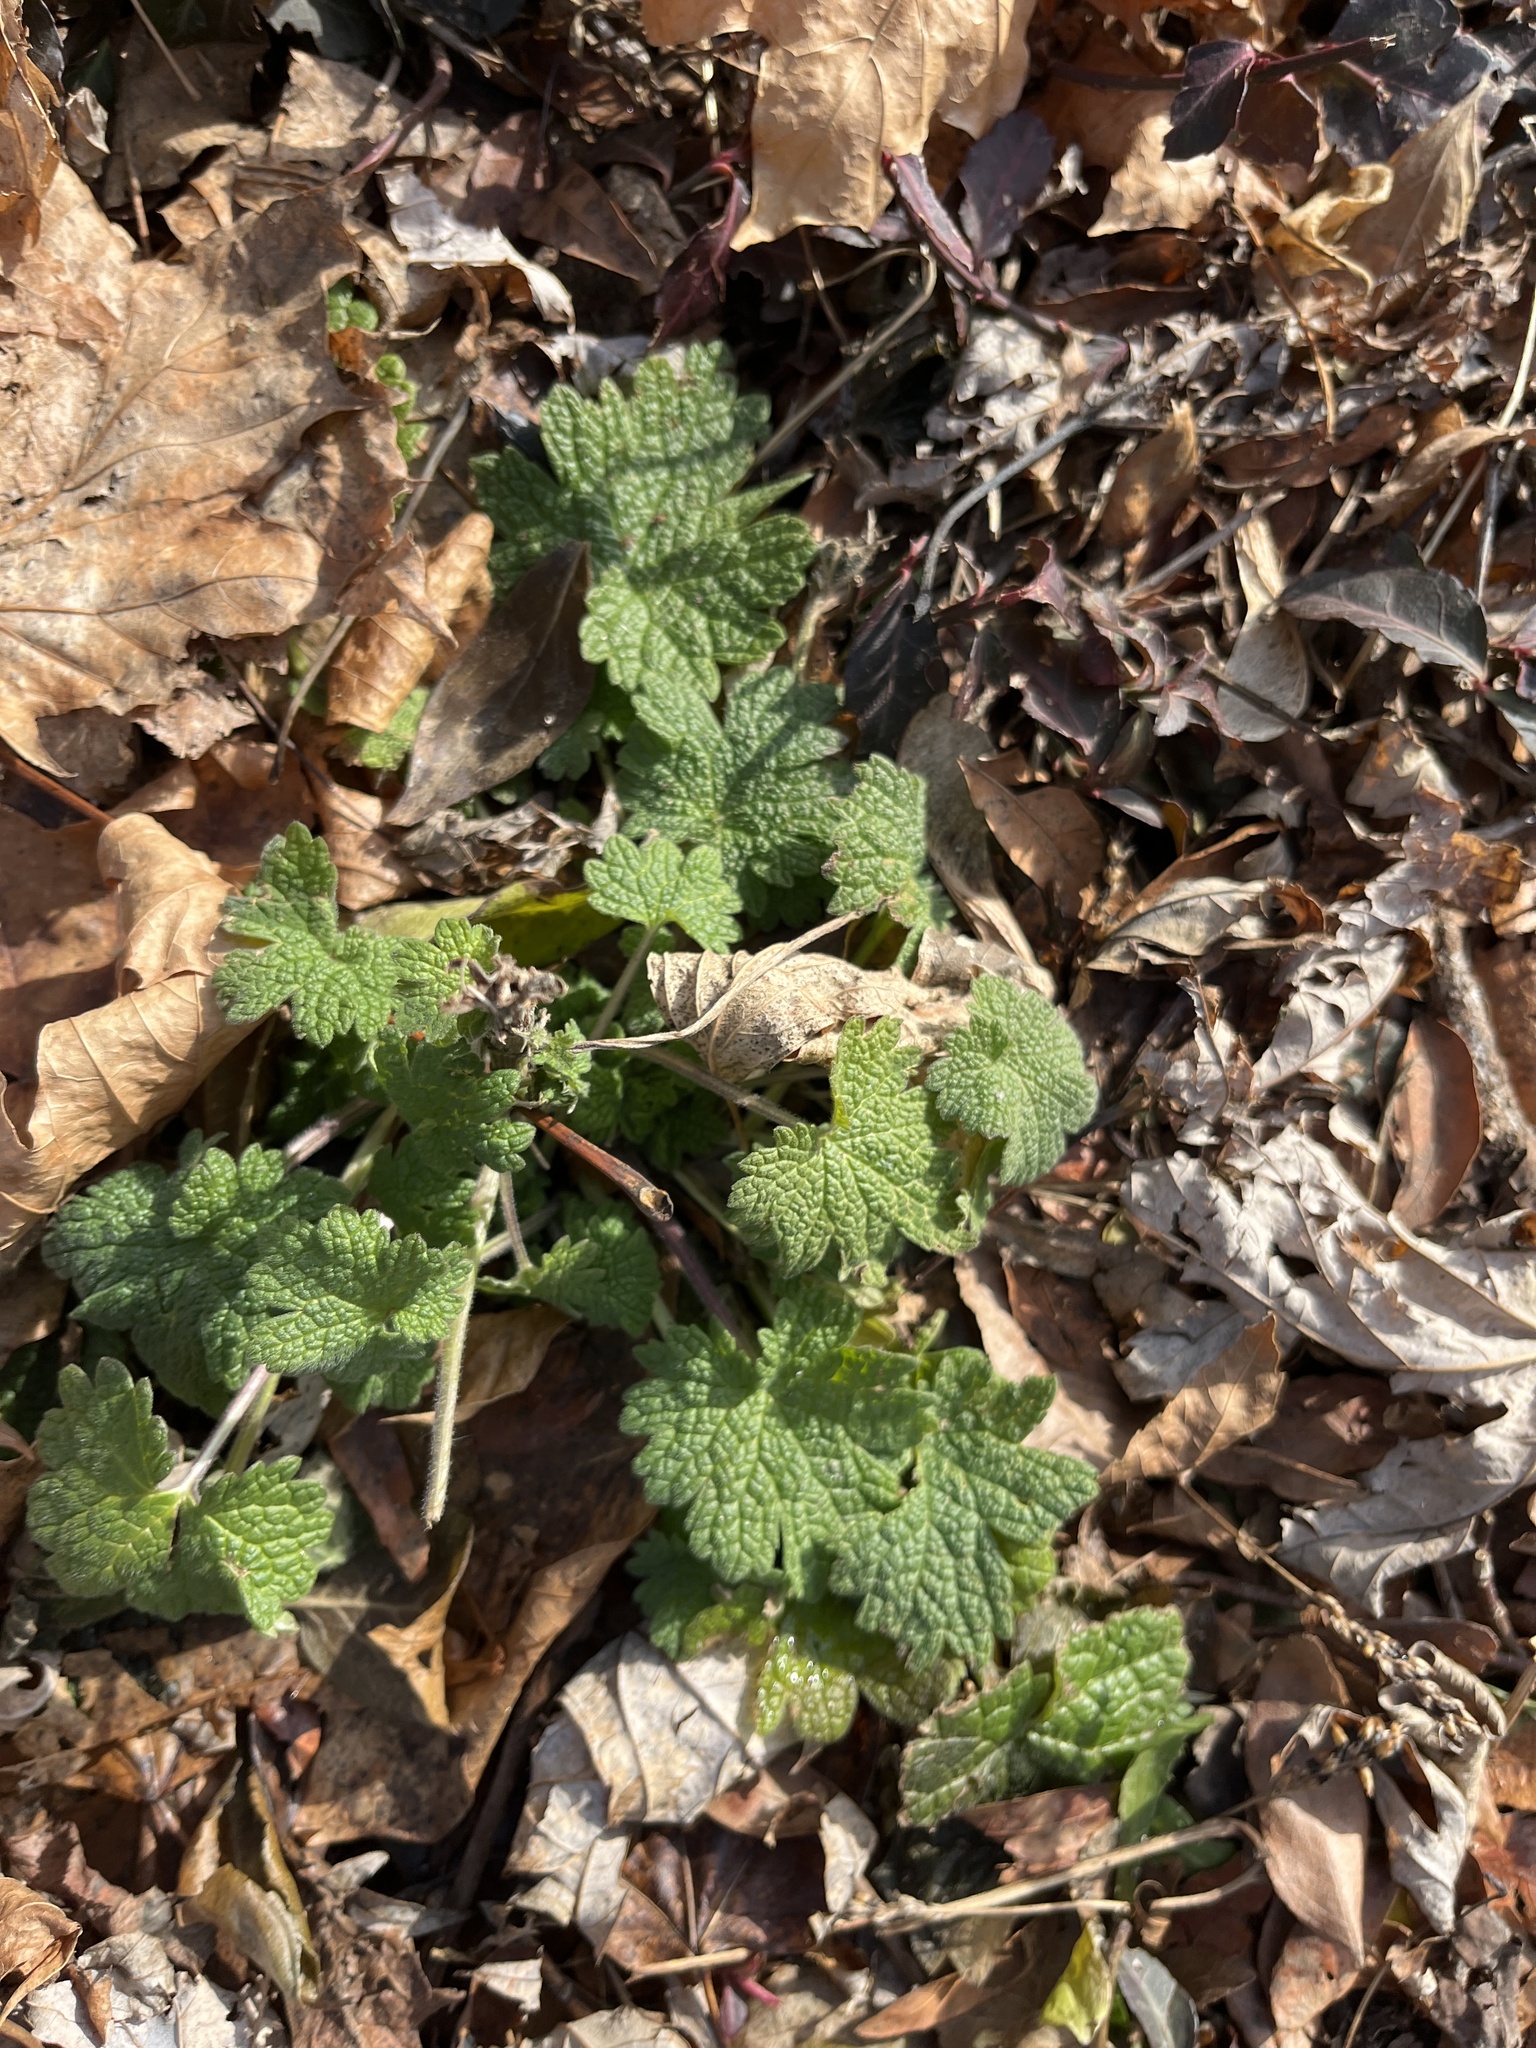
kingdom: Plantae
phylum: Tracheophyta
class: Magnoliopsida
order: Lamiales
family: Lamiaceae
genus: Leonurus
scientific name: Leonurus cardiaca
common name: Motherwort
